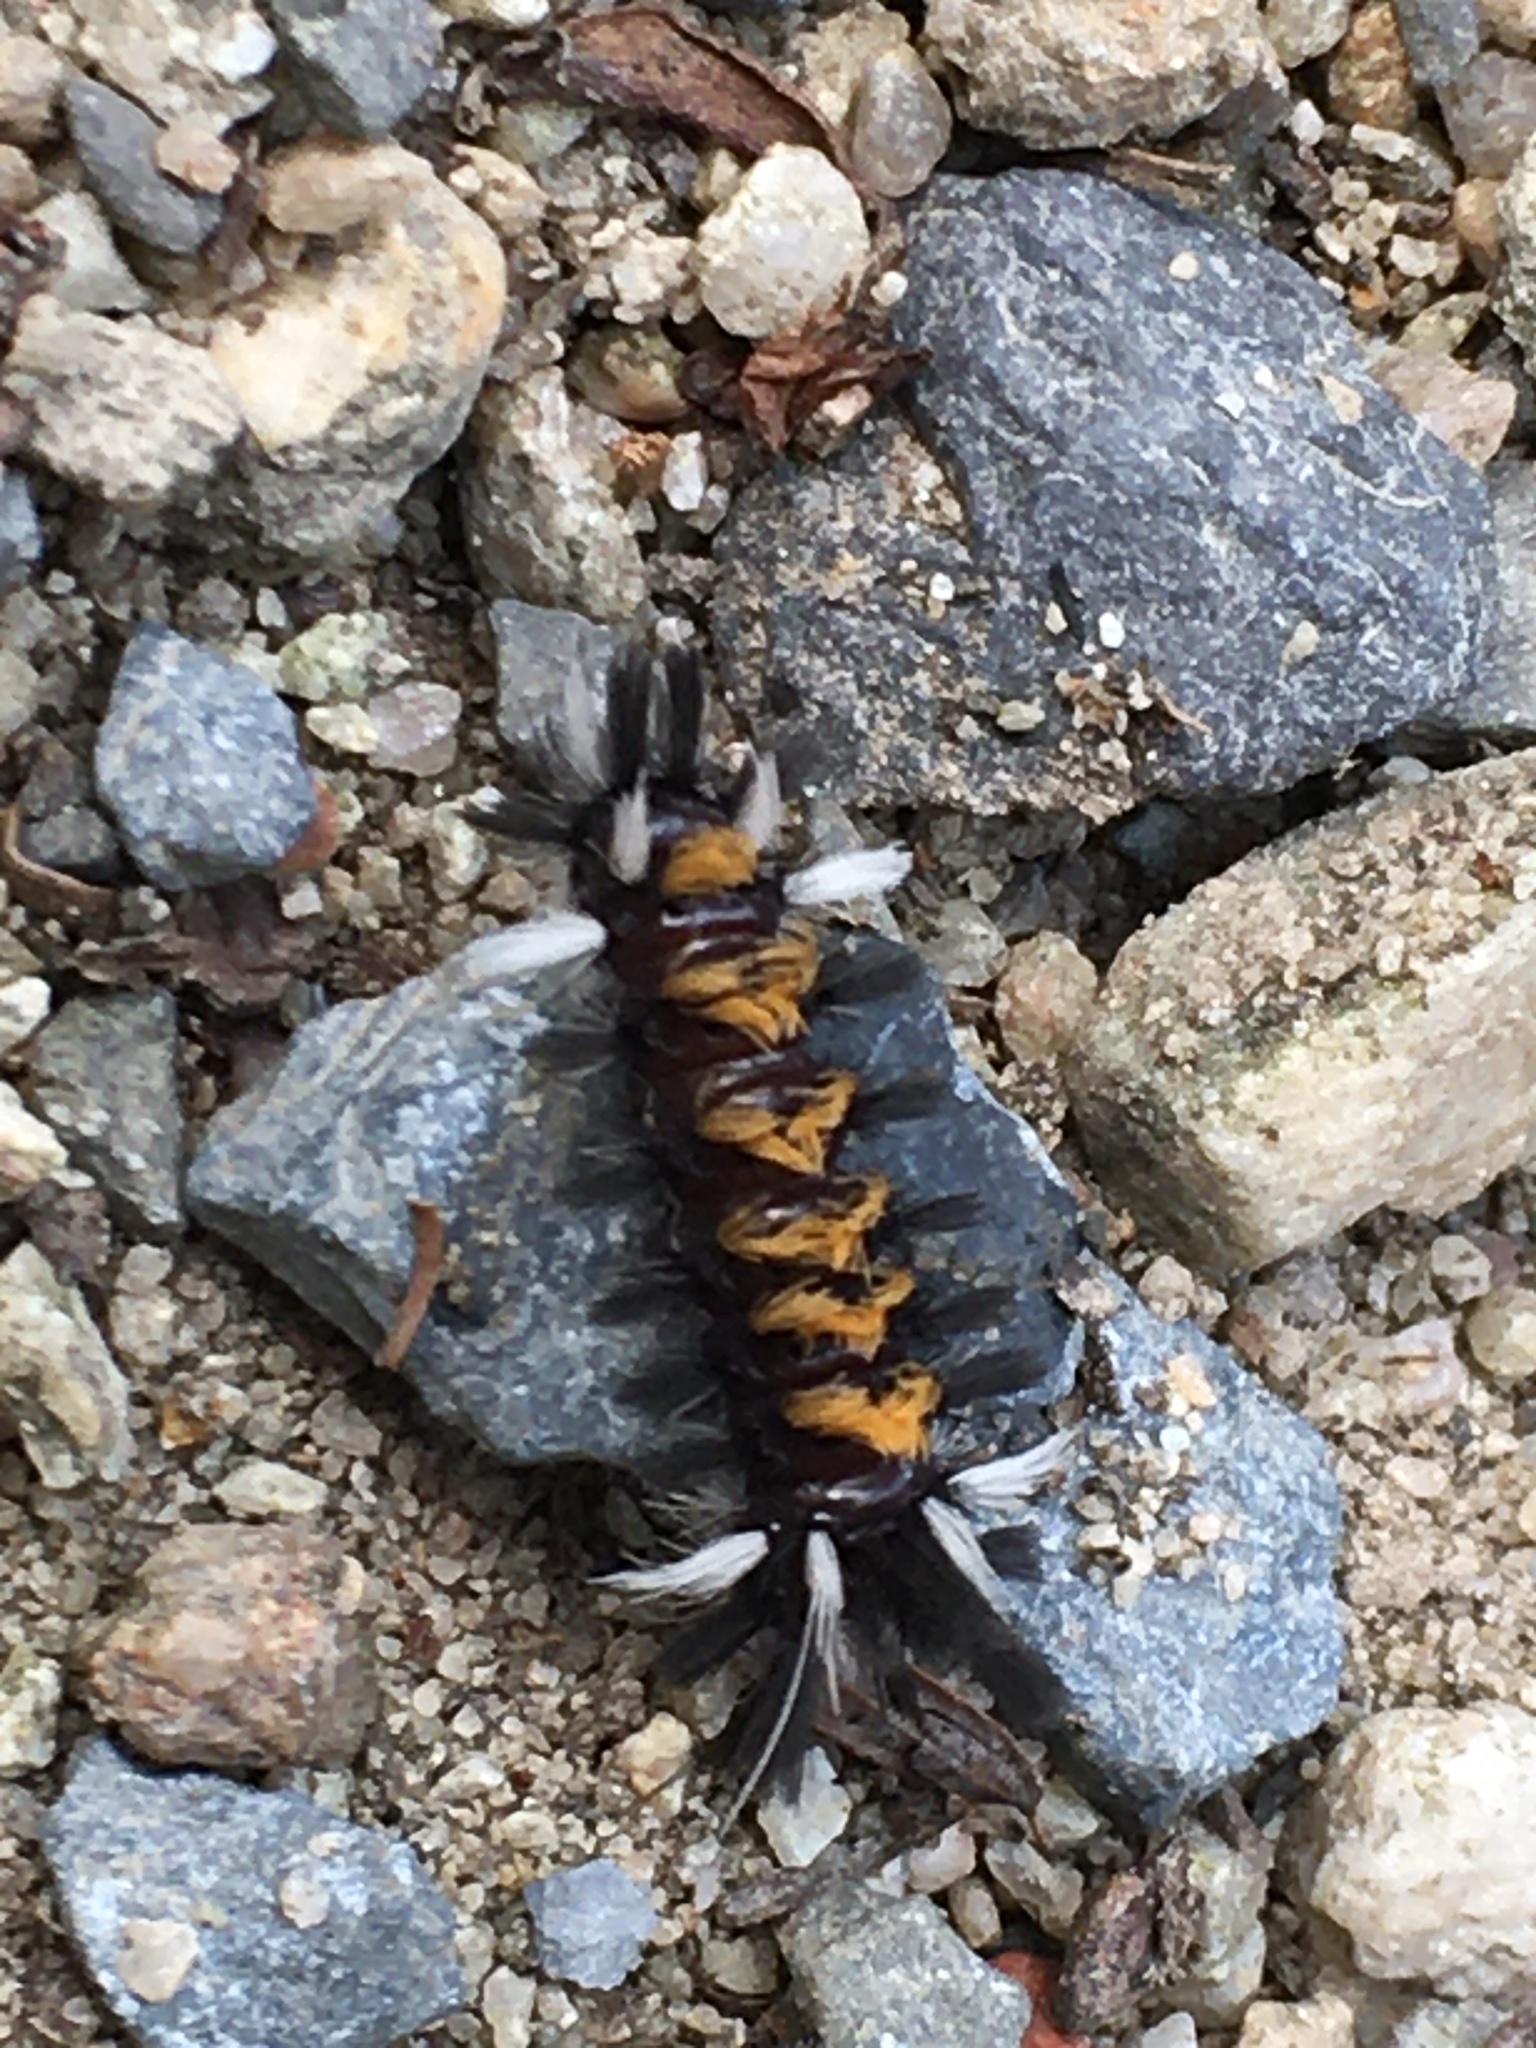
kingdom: Animalia
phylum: Arthropoda
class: Insecta
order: Lepidoptera
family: Erebidae
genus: Euchaetes
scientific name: Euchaetes egle
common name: Milkweed tussock moth
